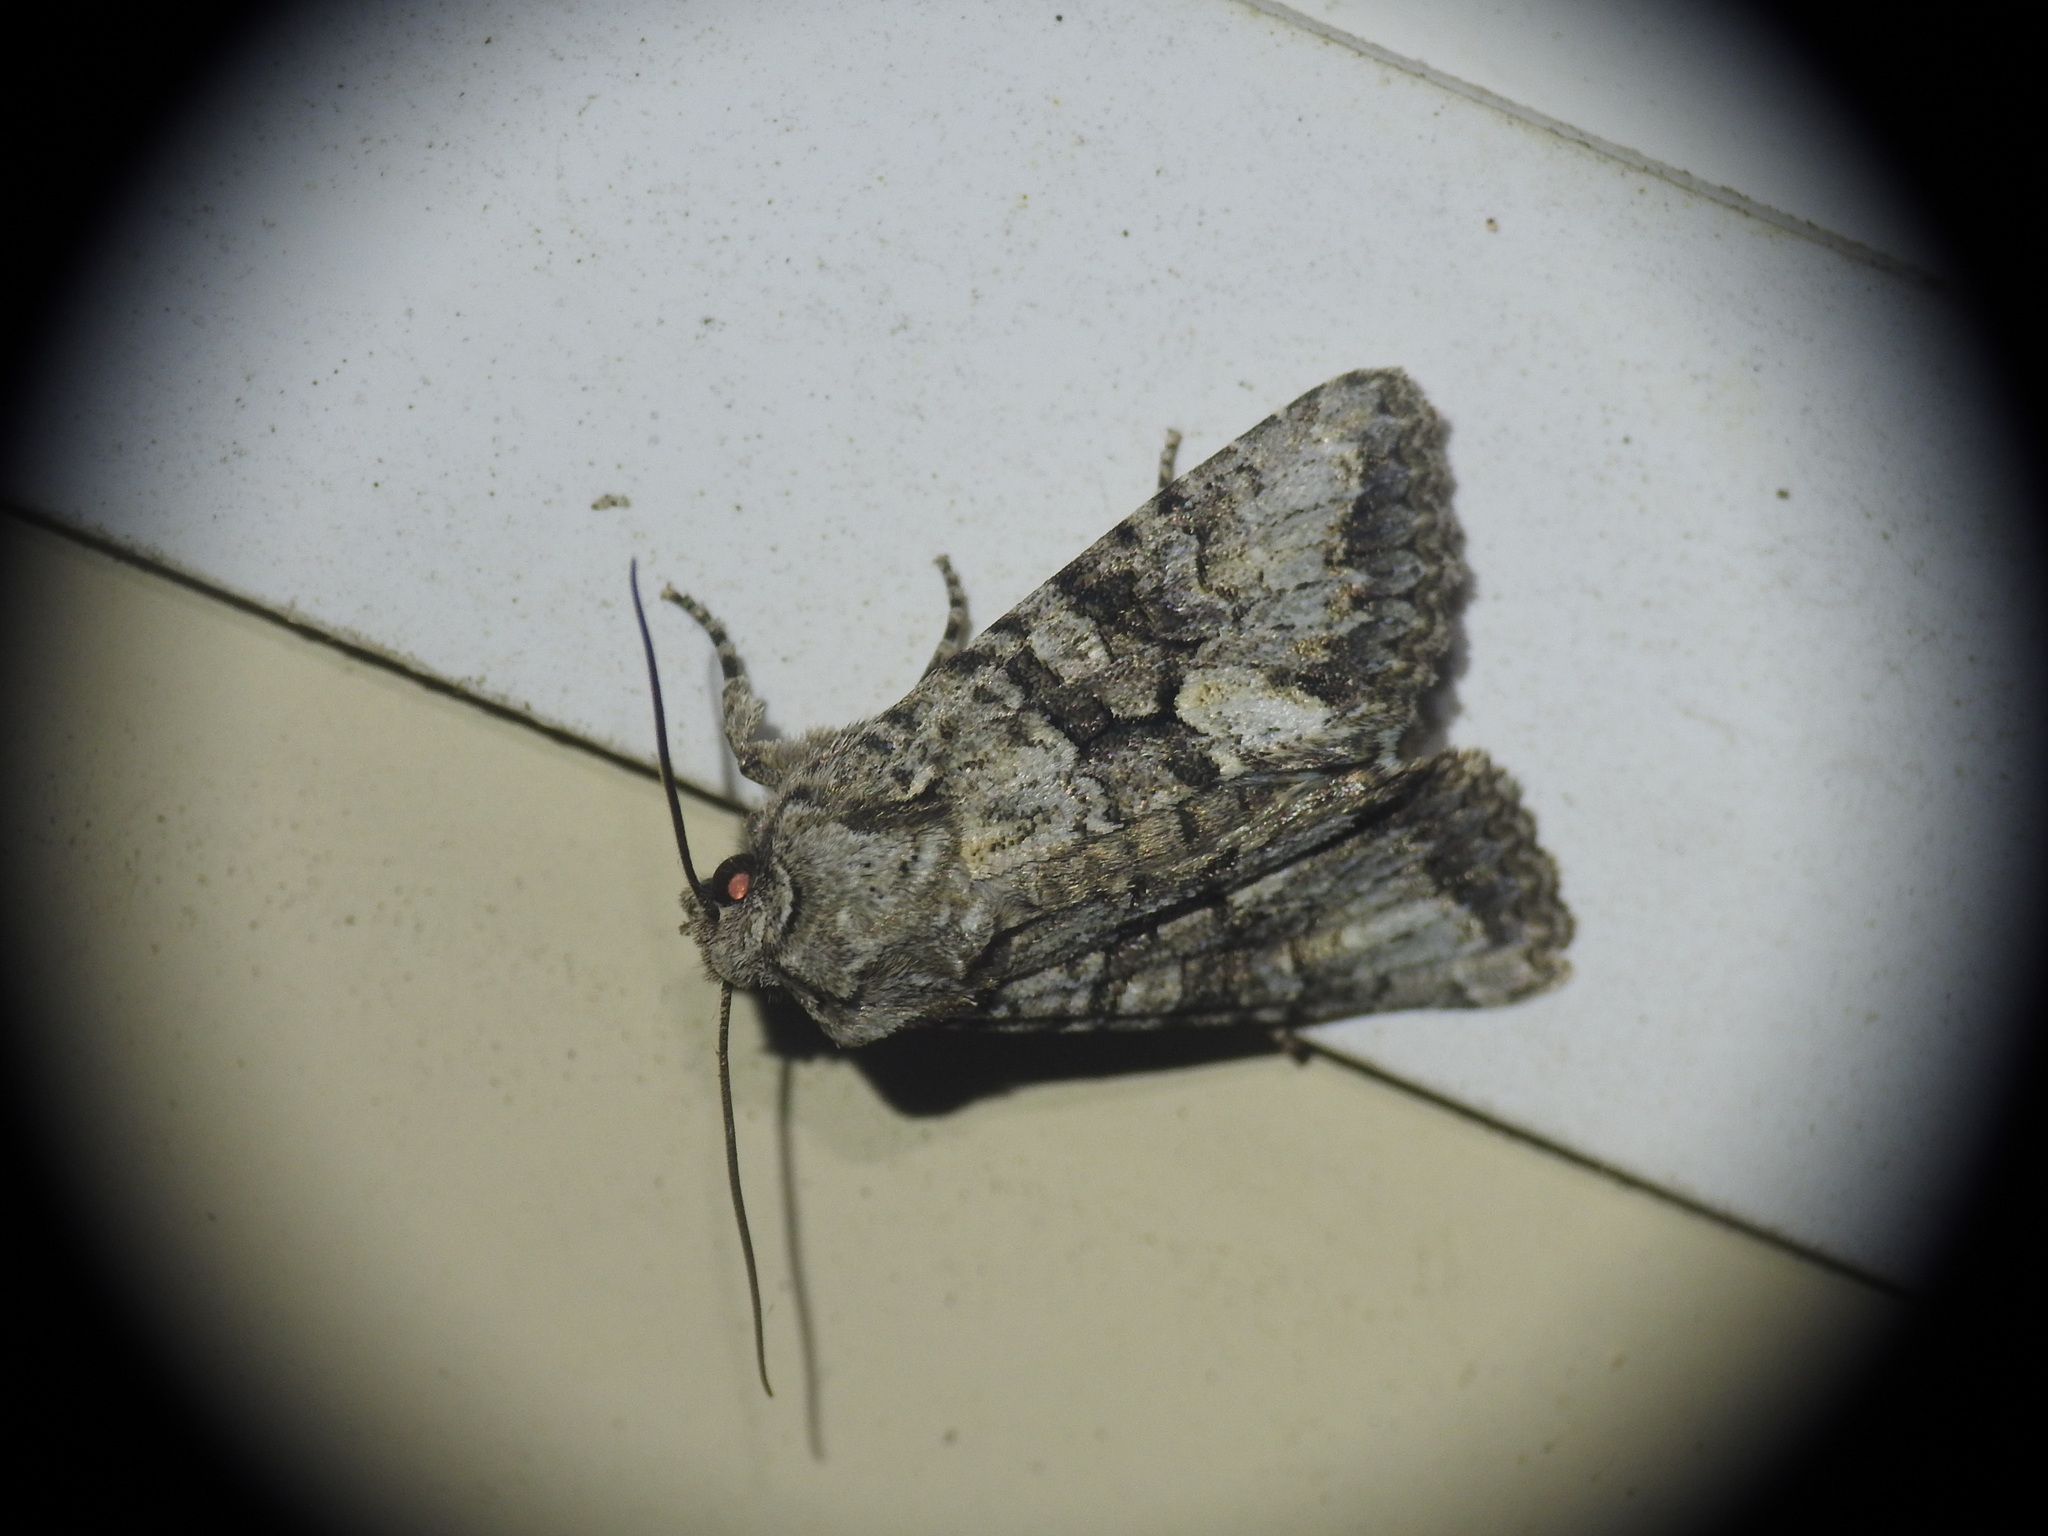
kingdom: Animalia
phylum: Arthropoda
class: Insecta
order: Lepidoptera
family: Noctuidae
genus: Dryobotodes
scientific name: Dryobotodes monochroma
